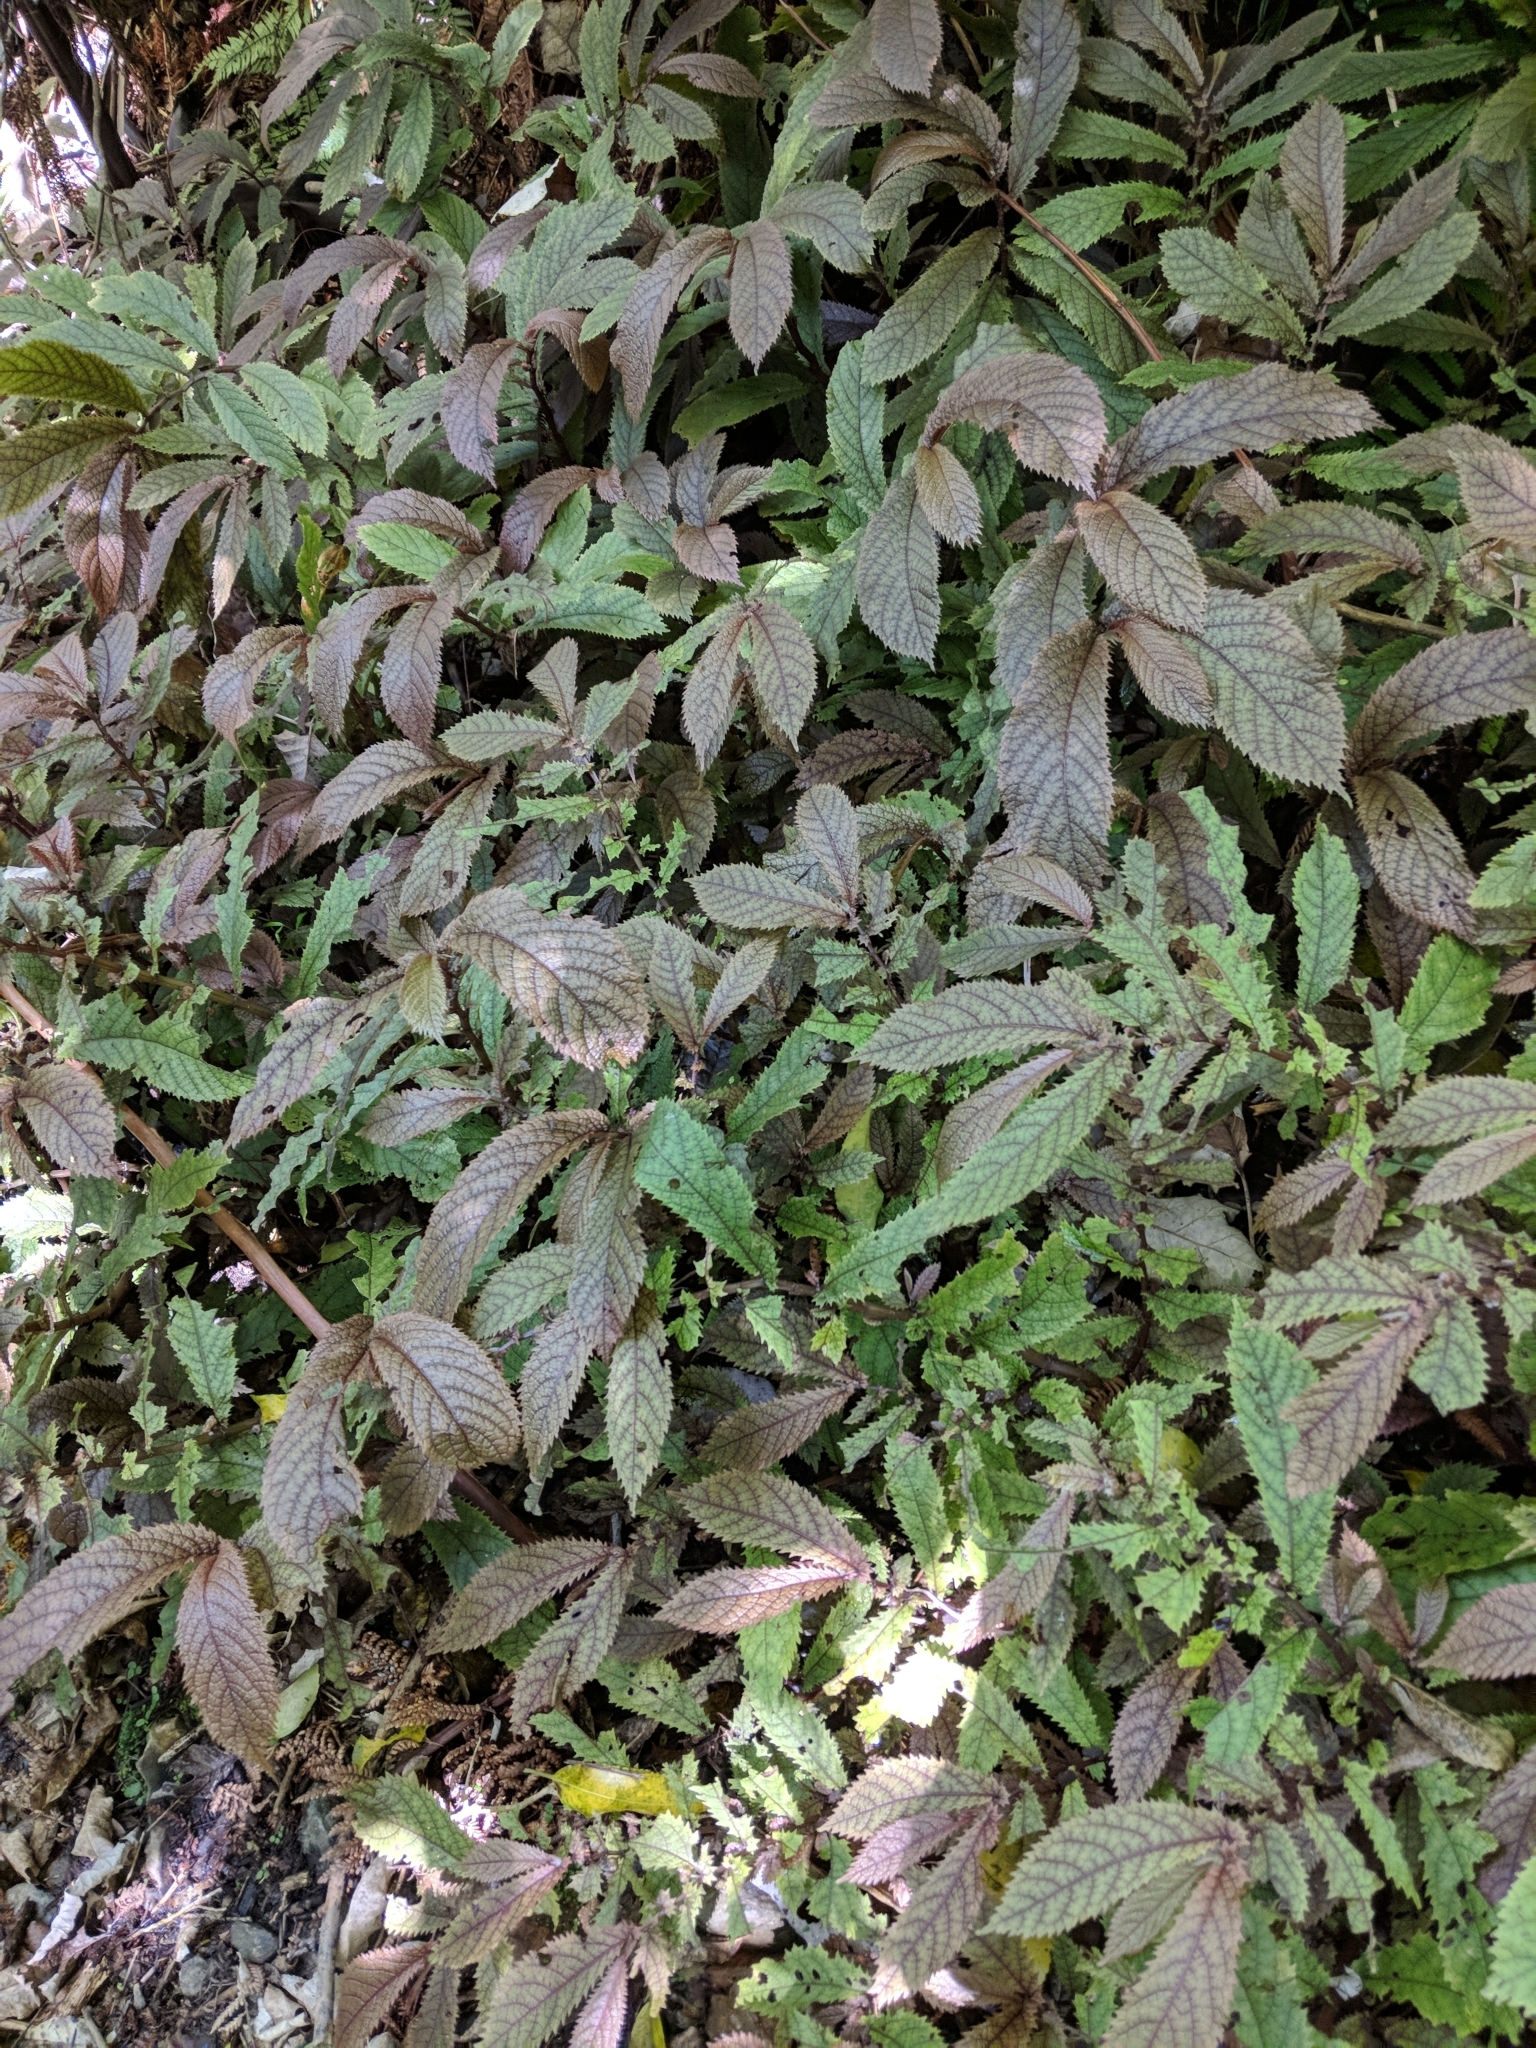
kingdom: Plantae
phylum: Tracheophyta
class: Magnoliopsida
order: Rosales
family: Urticaceae
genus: Elatostema
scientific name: Elatostema rugosum
